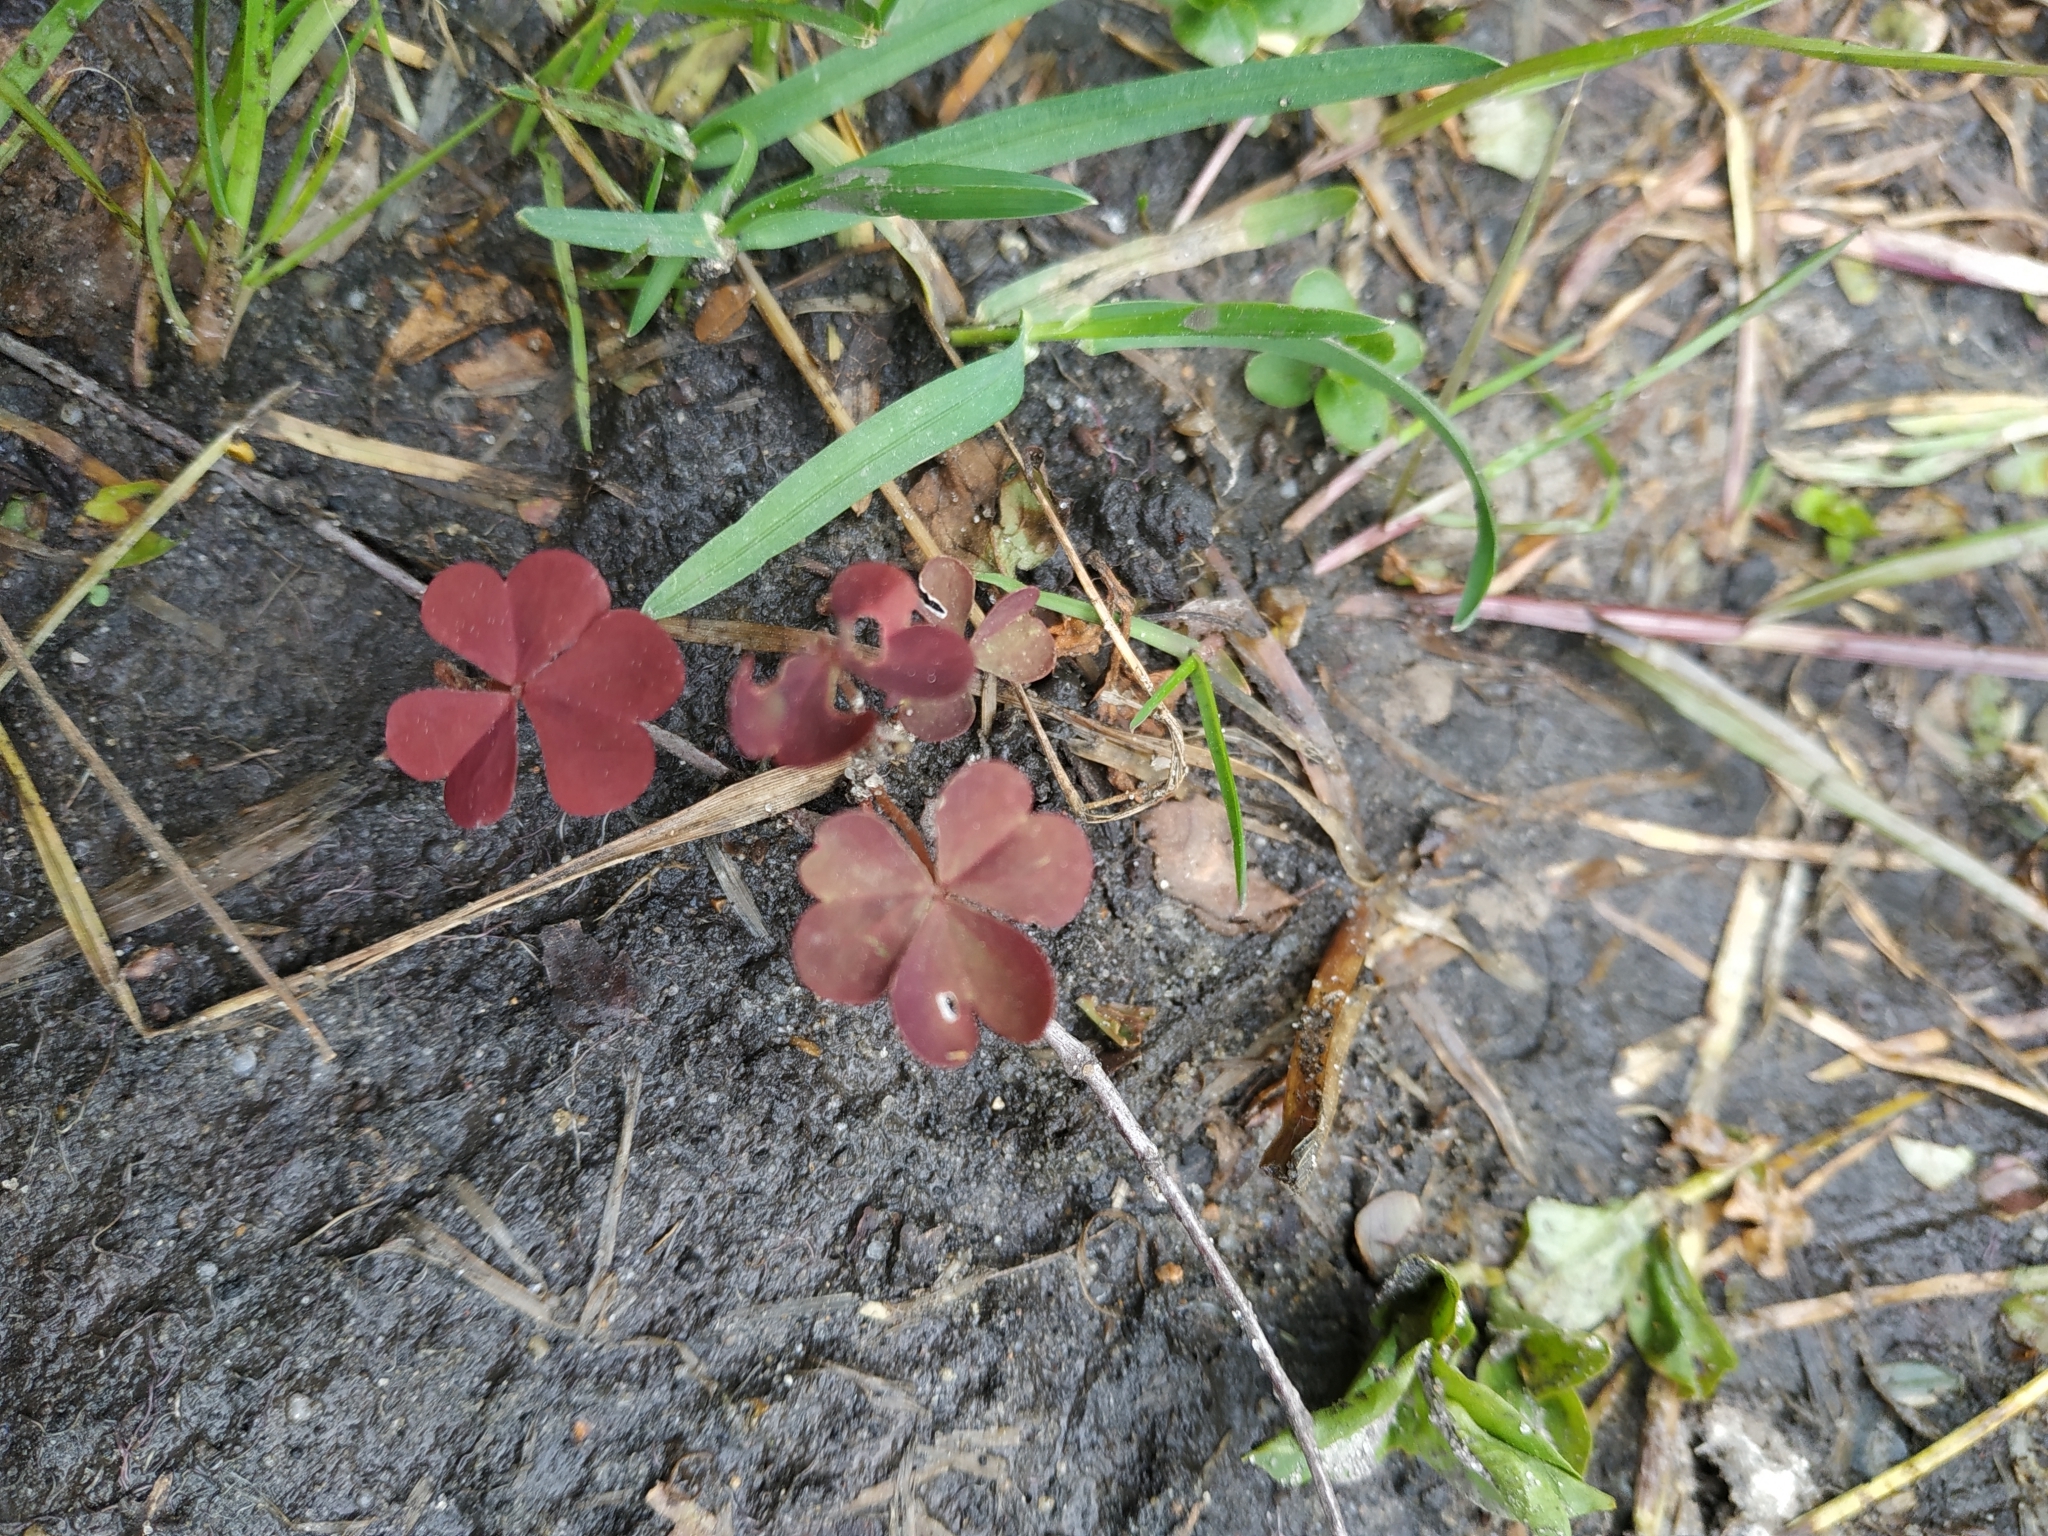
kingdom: Plantae
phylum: Tracheophyta
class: Magnoliopsida
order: Oxalidales
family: Oxalidaceae
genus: Oxalis
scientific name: Oxalis stricta
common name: Upright yellow-sorrel
